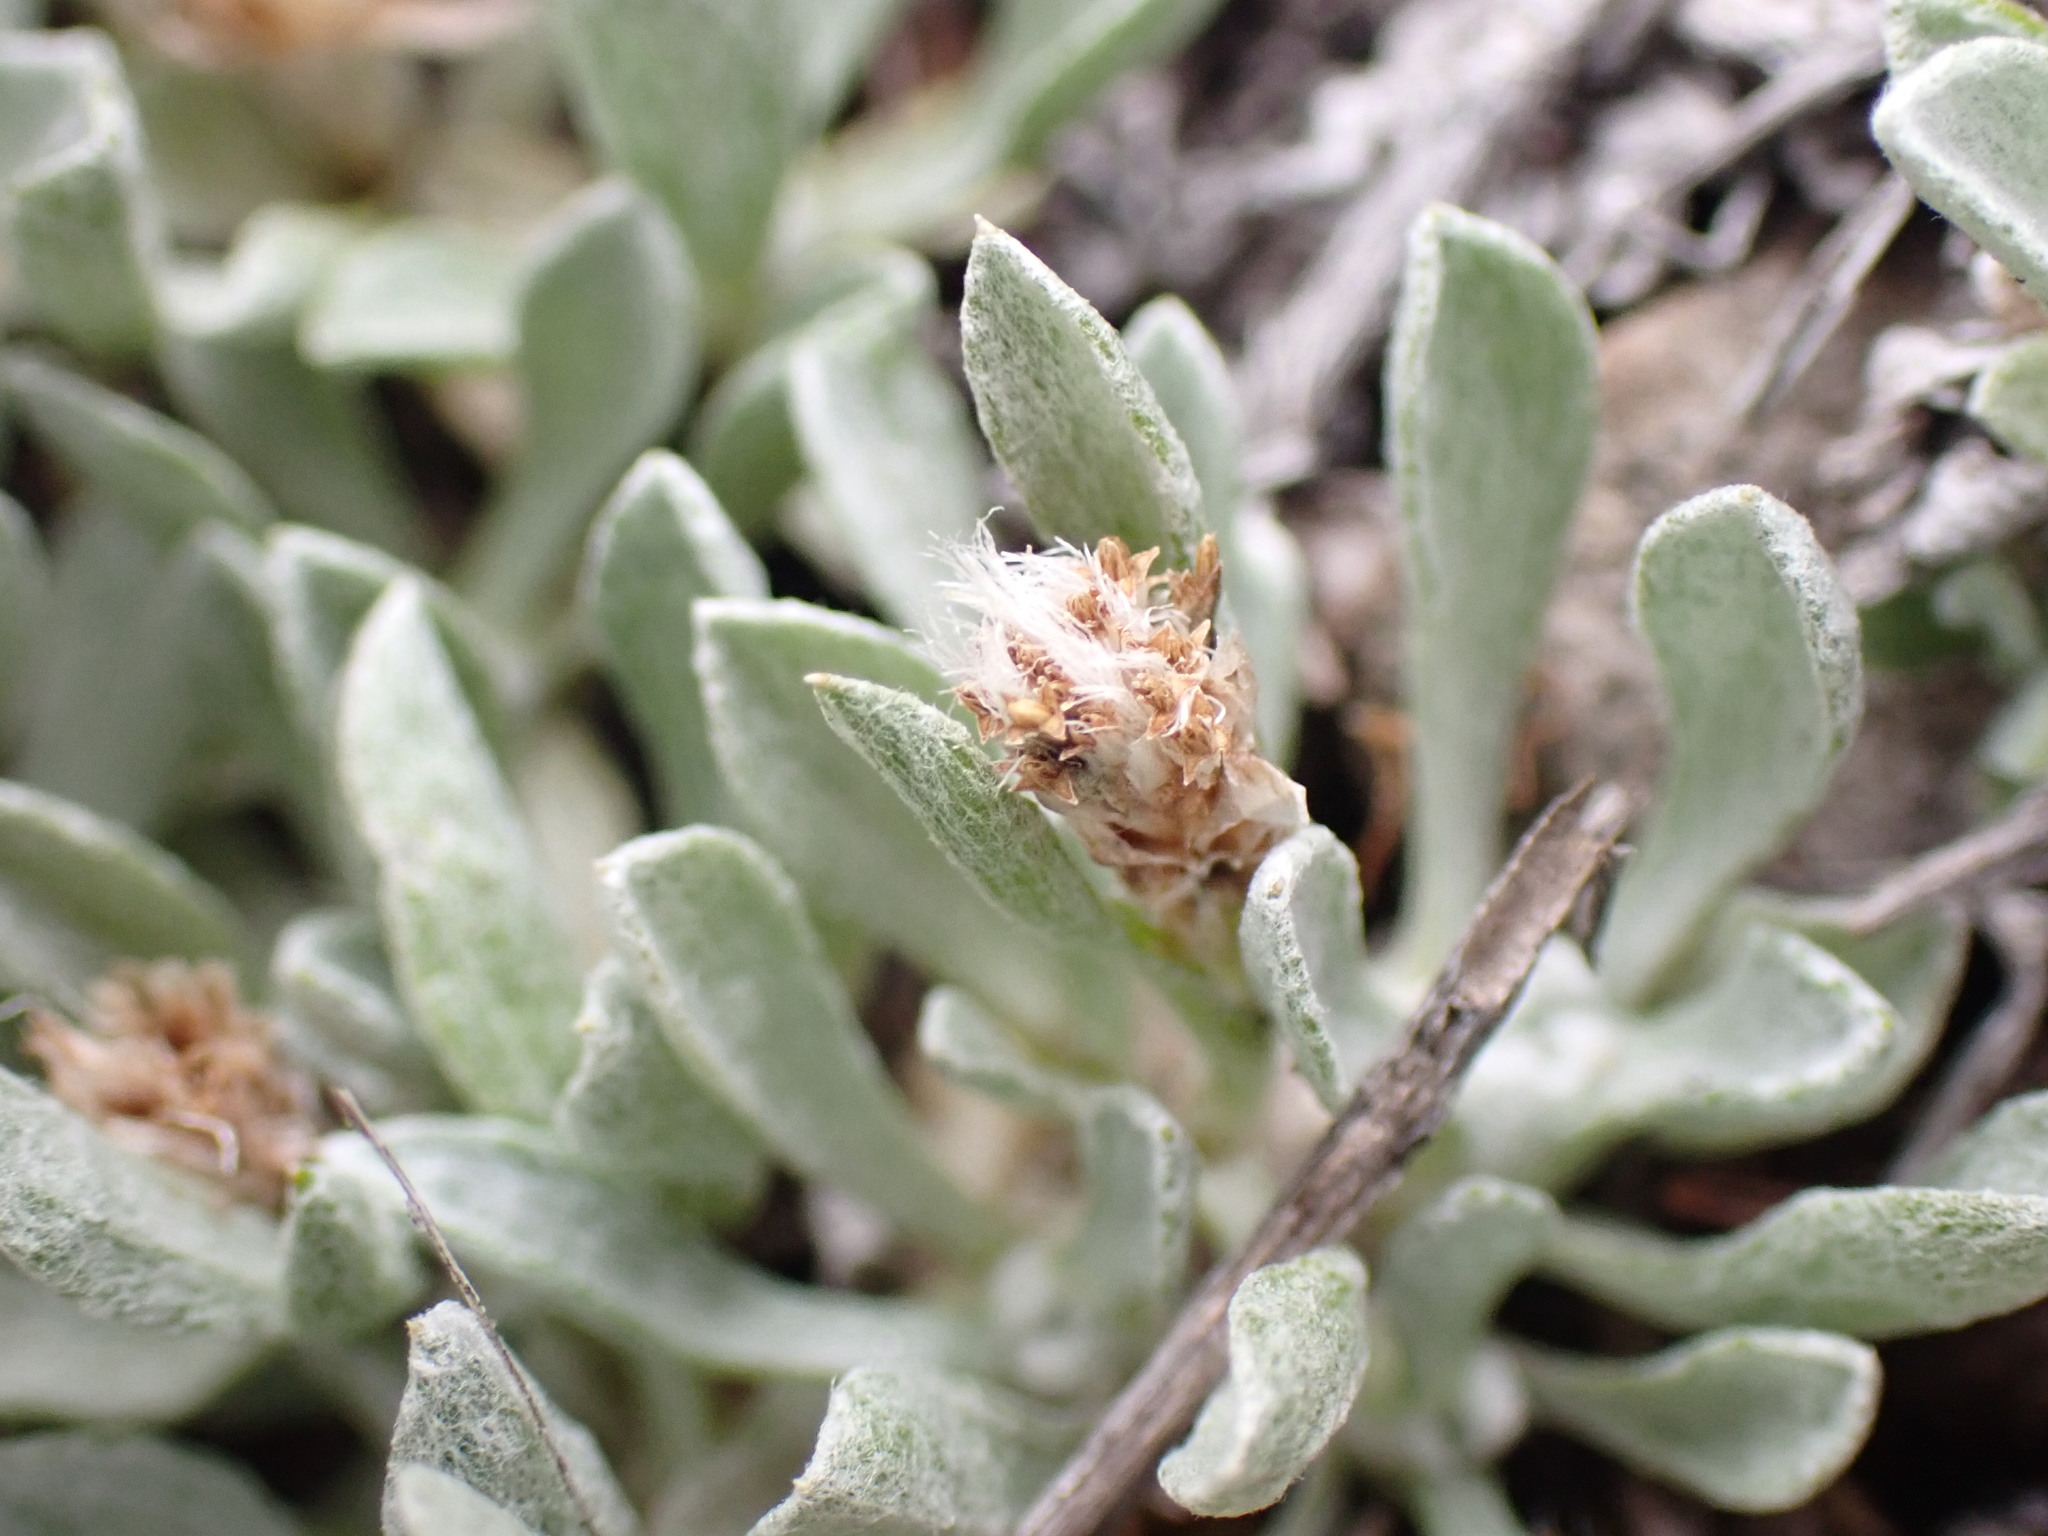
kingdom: Plantae
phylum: Tracheophyta
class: Magnoliopsida
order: Asterales
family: Asteraceae
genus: Antennaria
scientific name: Antennaria dimorpha
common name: Cushion pussytoes
